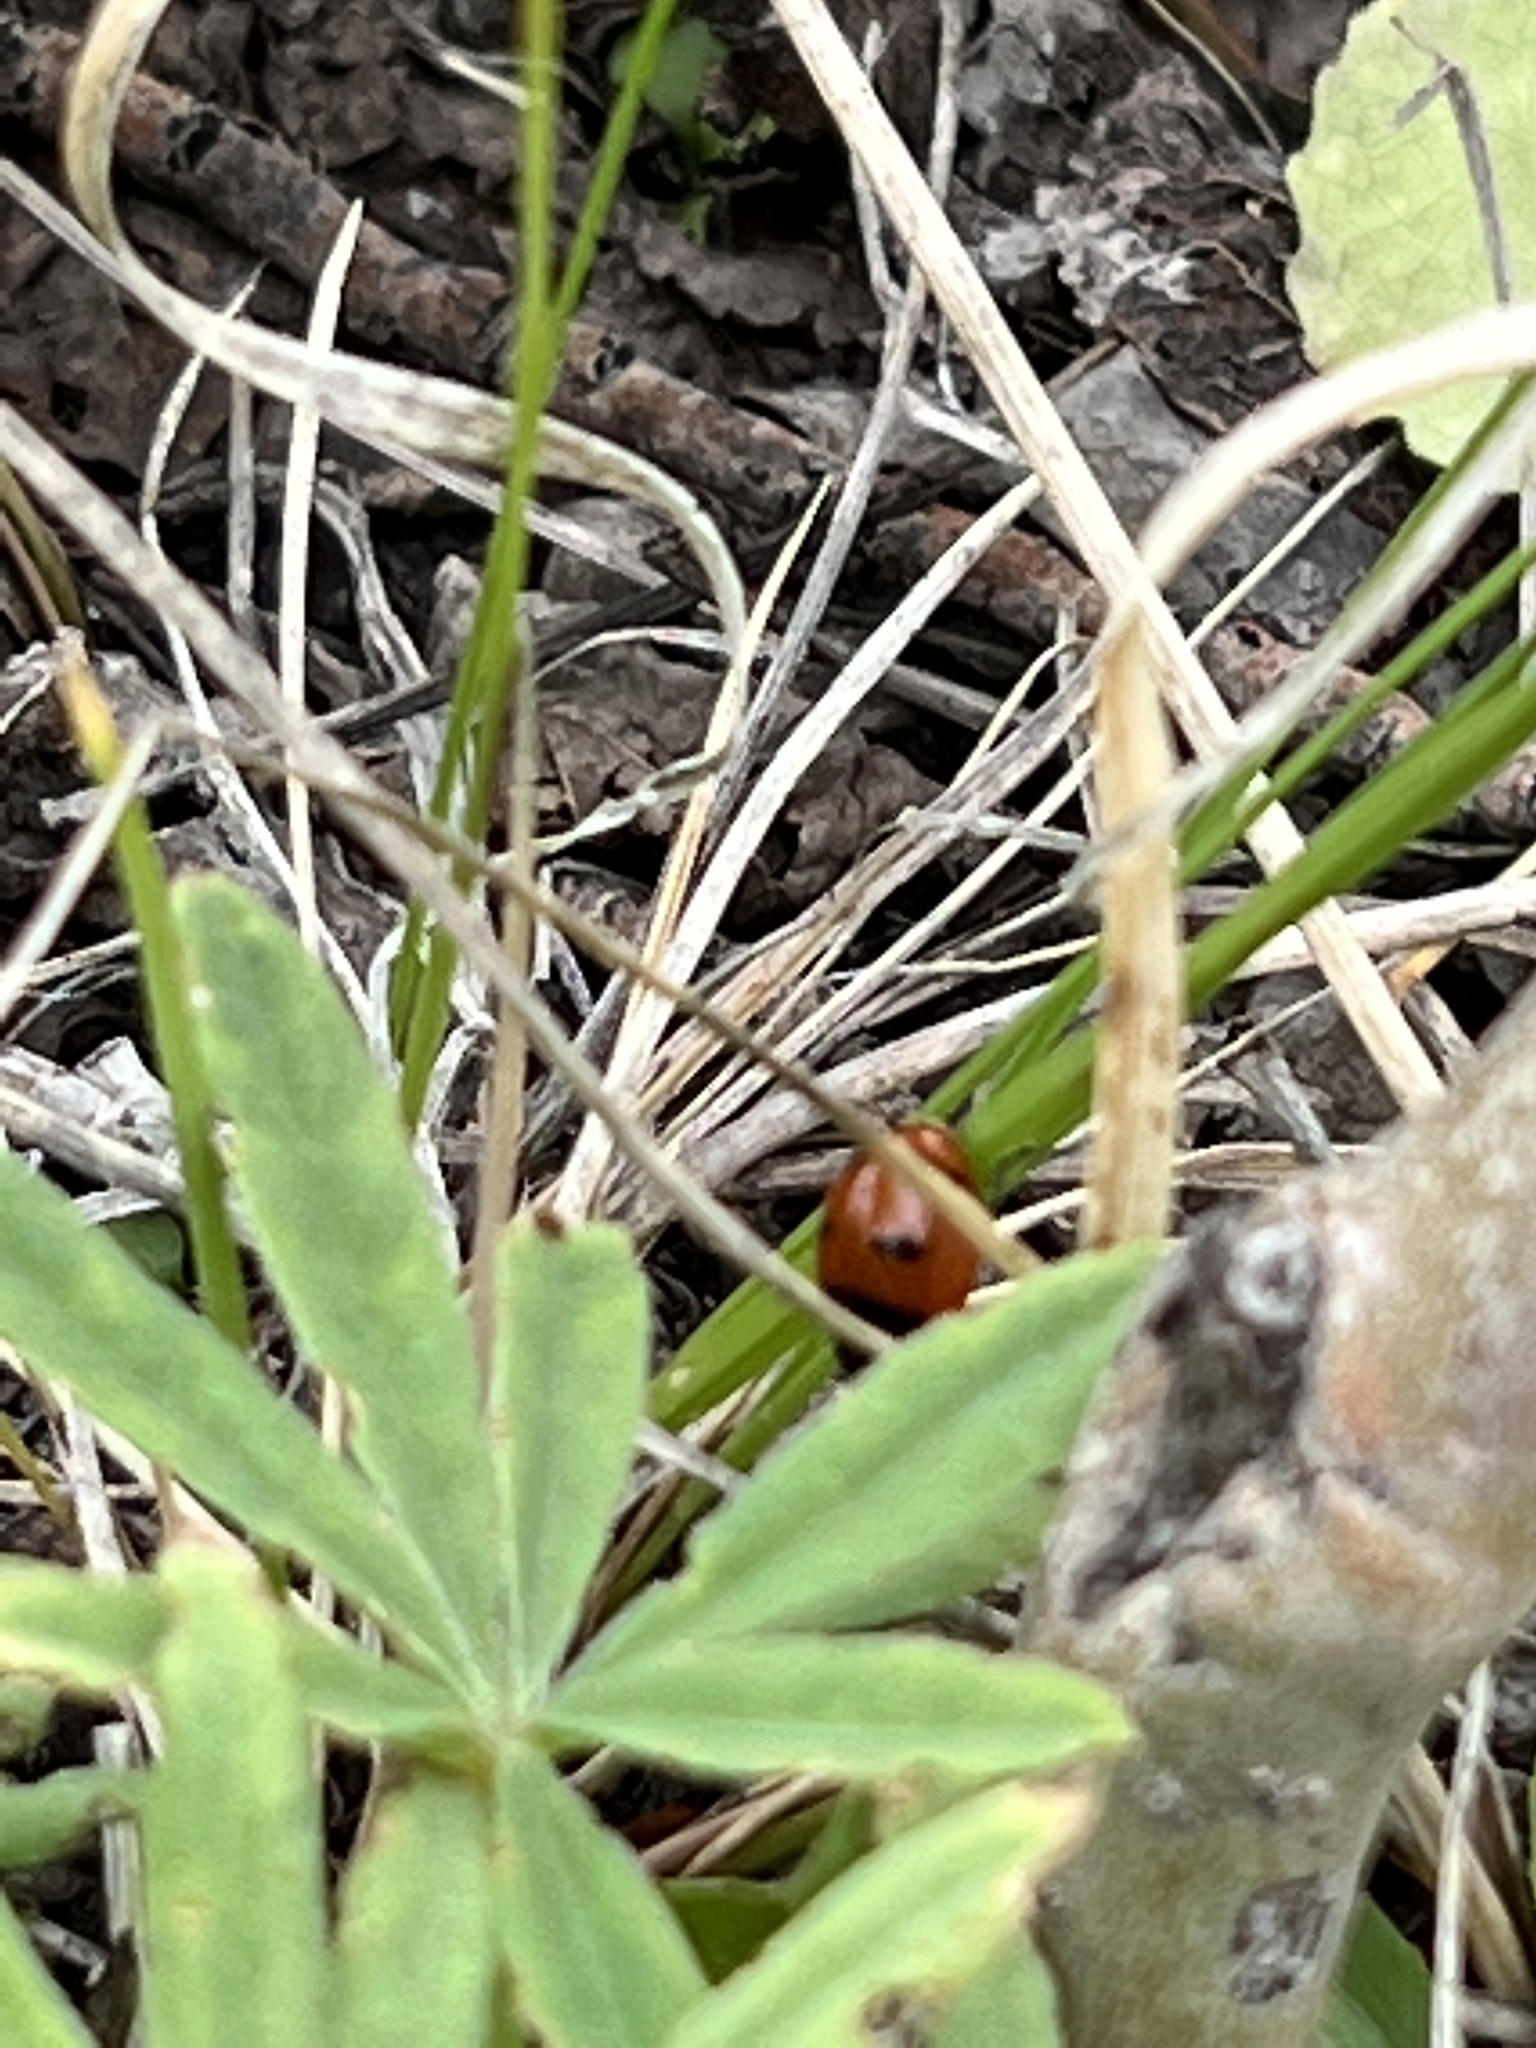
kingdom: Animalia
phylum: Arthropoda
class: Insecta
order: Coleoptera
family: Coccinellidae
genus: Coccinella
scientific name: Coccinella transversoguttata
